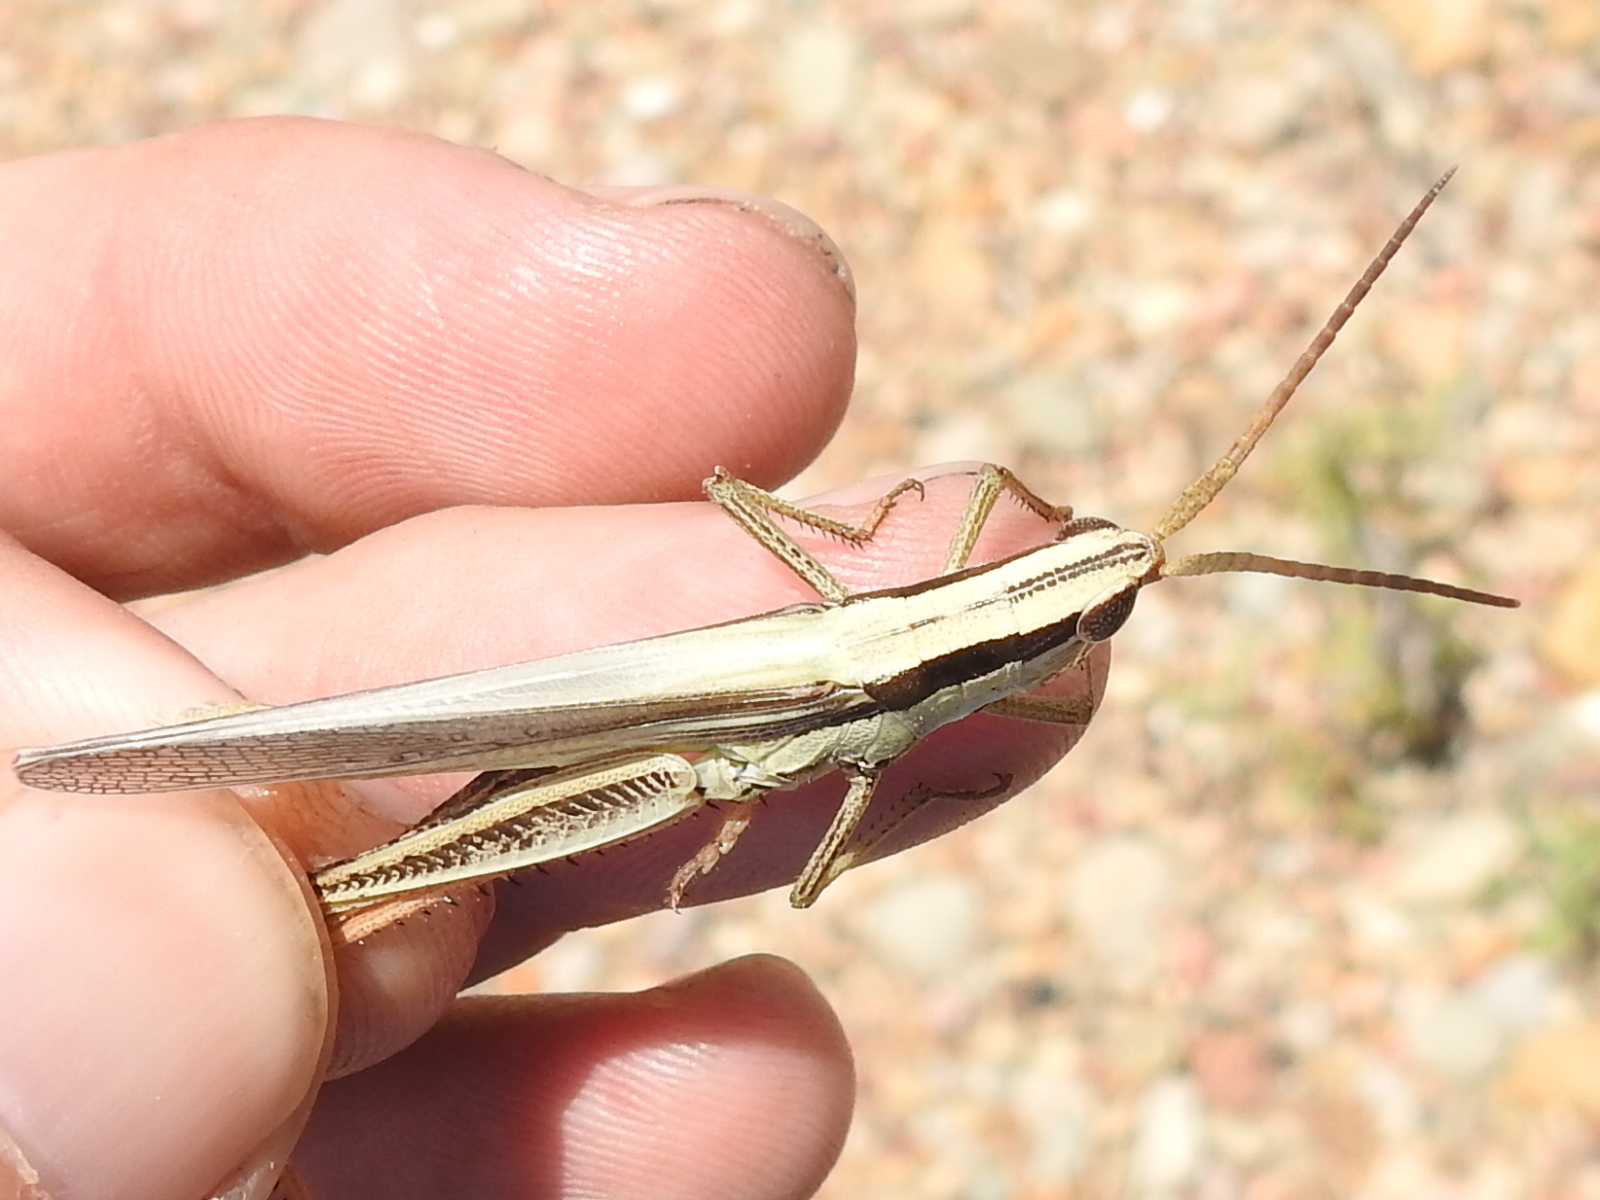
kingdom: Animalia
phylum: Arthropoda
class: Insecta
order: Orthoptera
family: Acrididae
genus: Mermiria
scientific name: Mermiria bivittata
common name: Two-striped mermiria grasshopper
